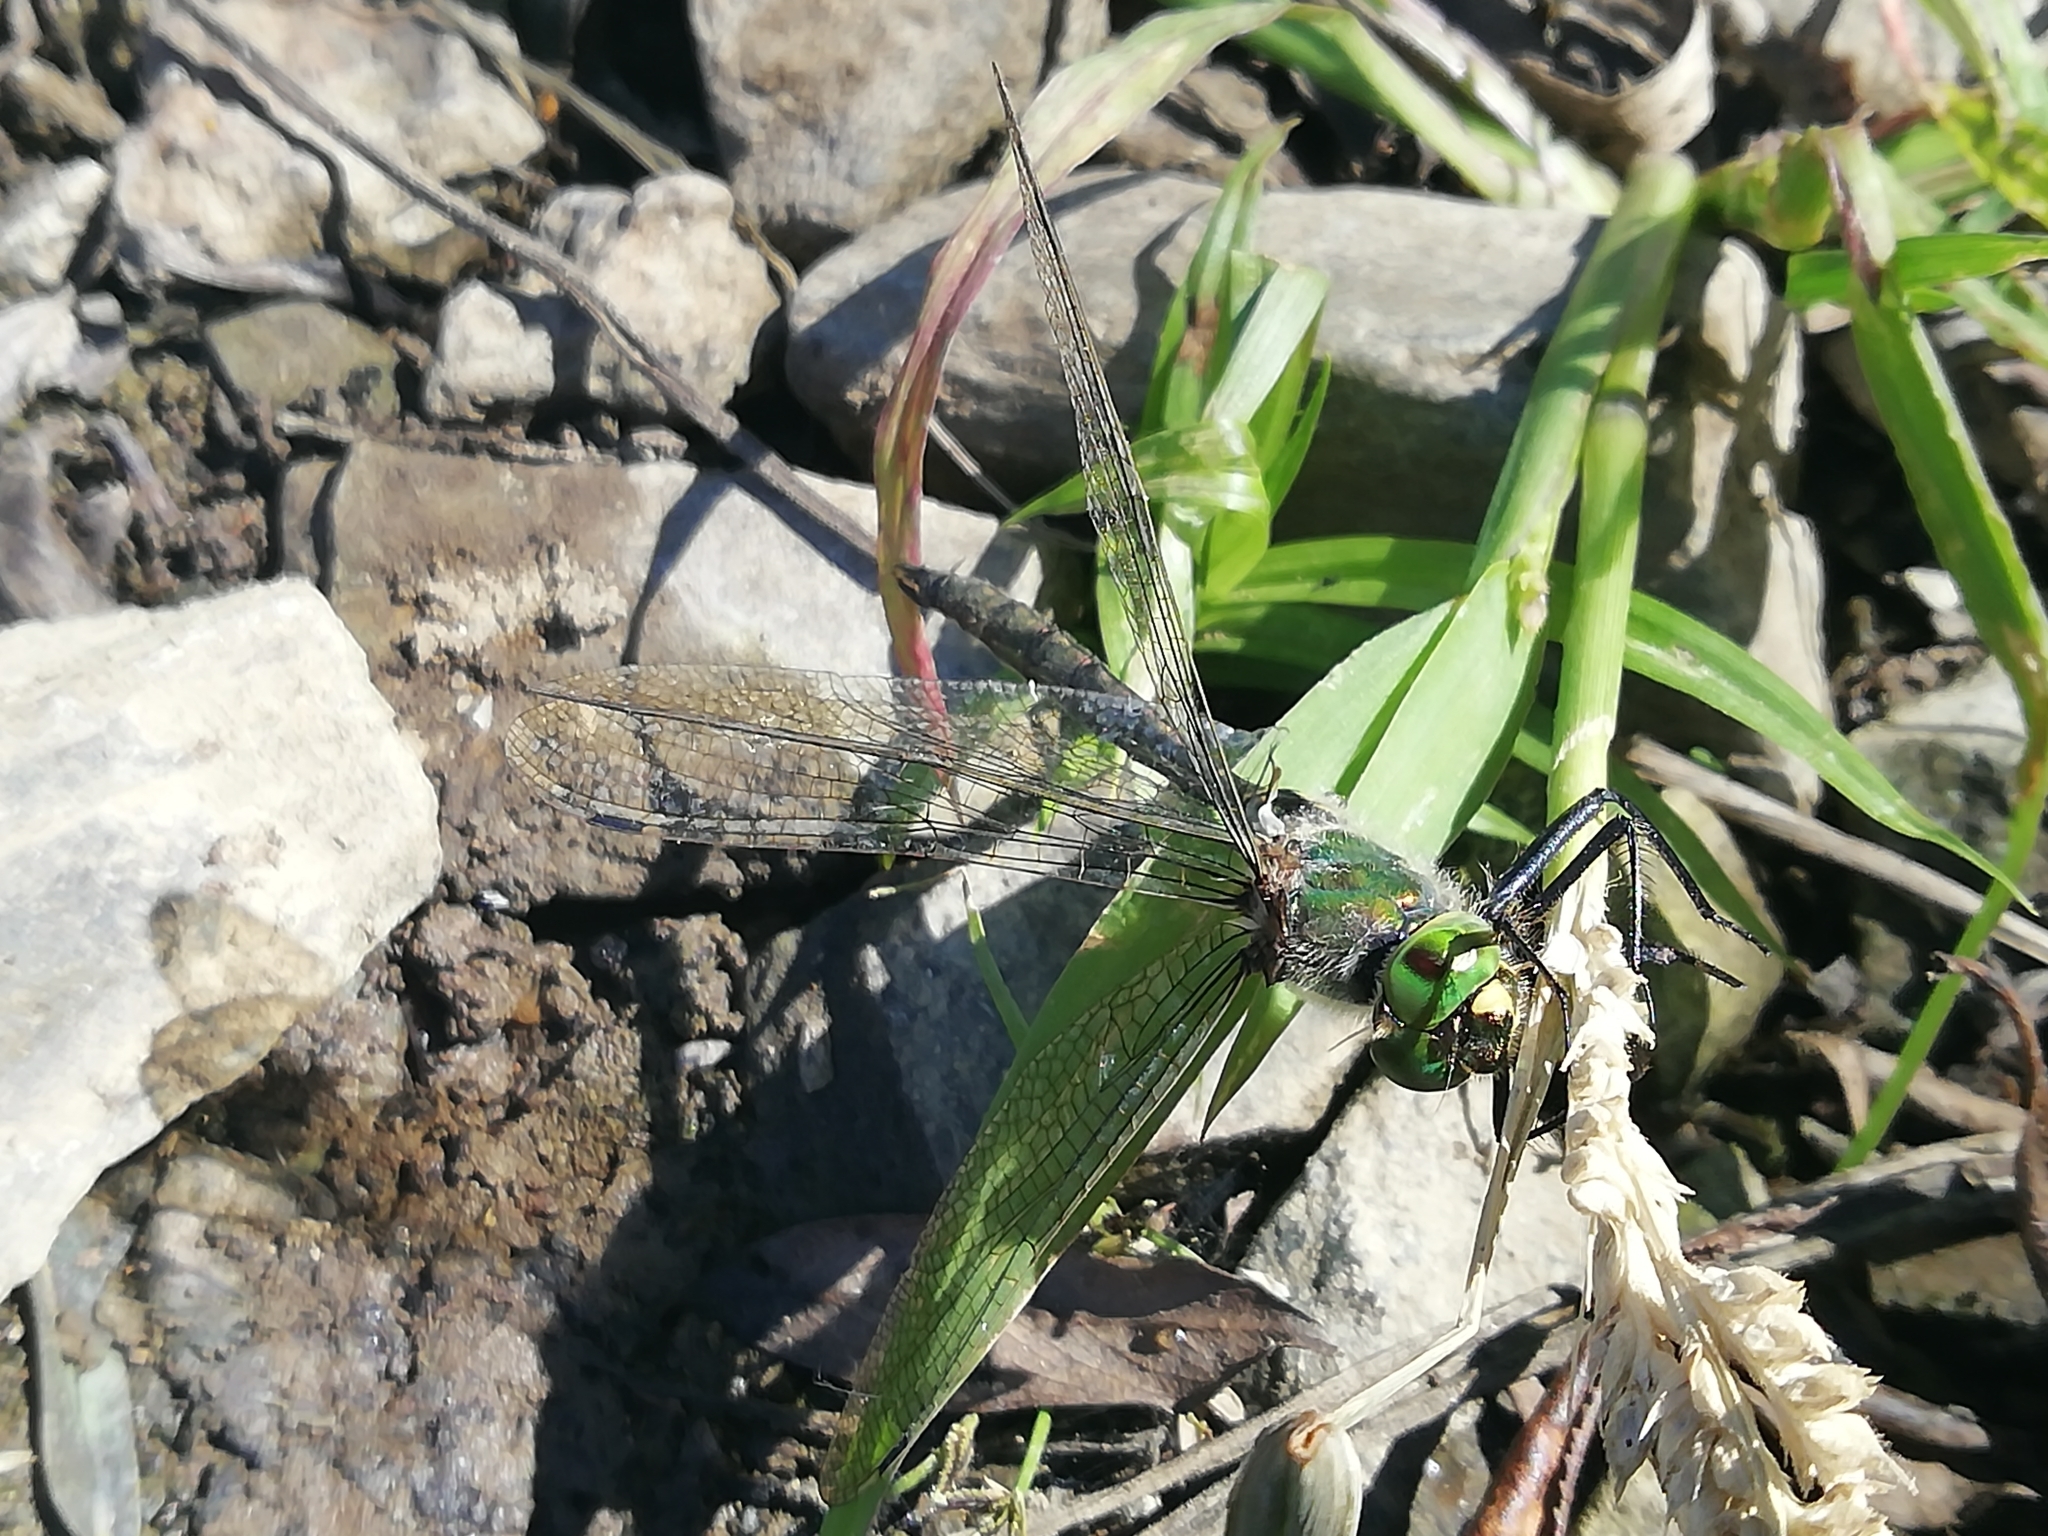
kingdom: Animalia
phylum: Arthropoda
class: Insecta
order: Odonata
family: Corduliidae
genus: Somatochlora
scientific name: Somatochlora metallica
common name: Brilliant emerald
